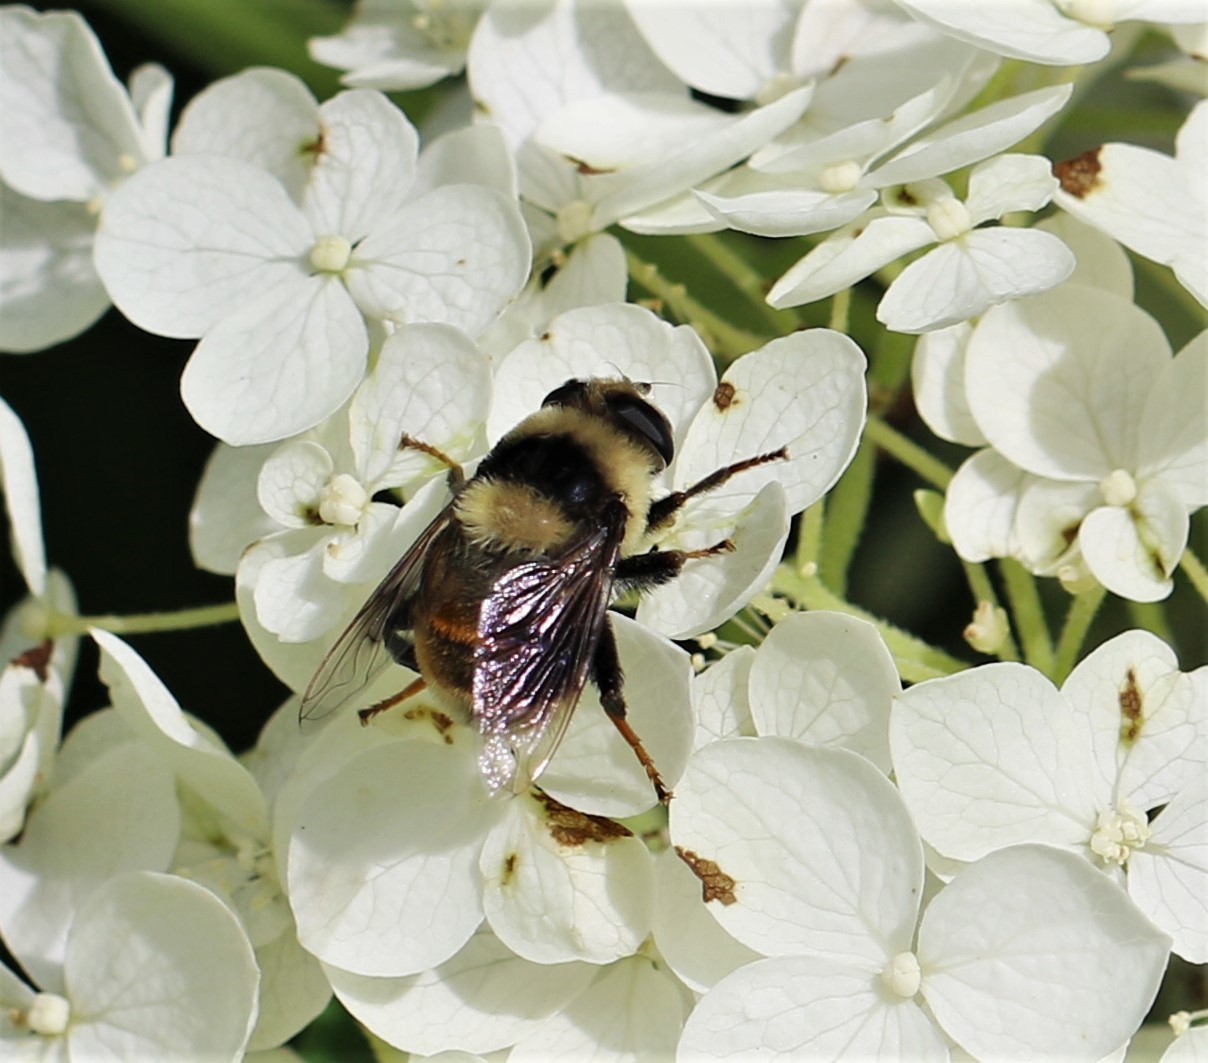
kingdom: Animalia
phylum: Arthropoda
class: Insecta
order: Diptera
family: Syrphidae
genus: Eristalis
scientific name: Eristalis flavipes
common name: Orange-legged drone fly
